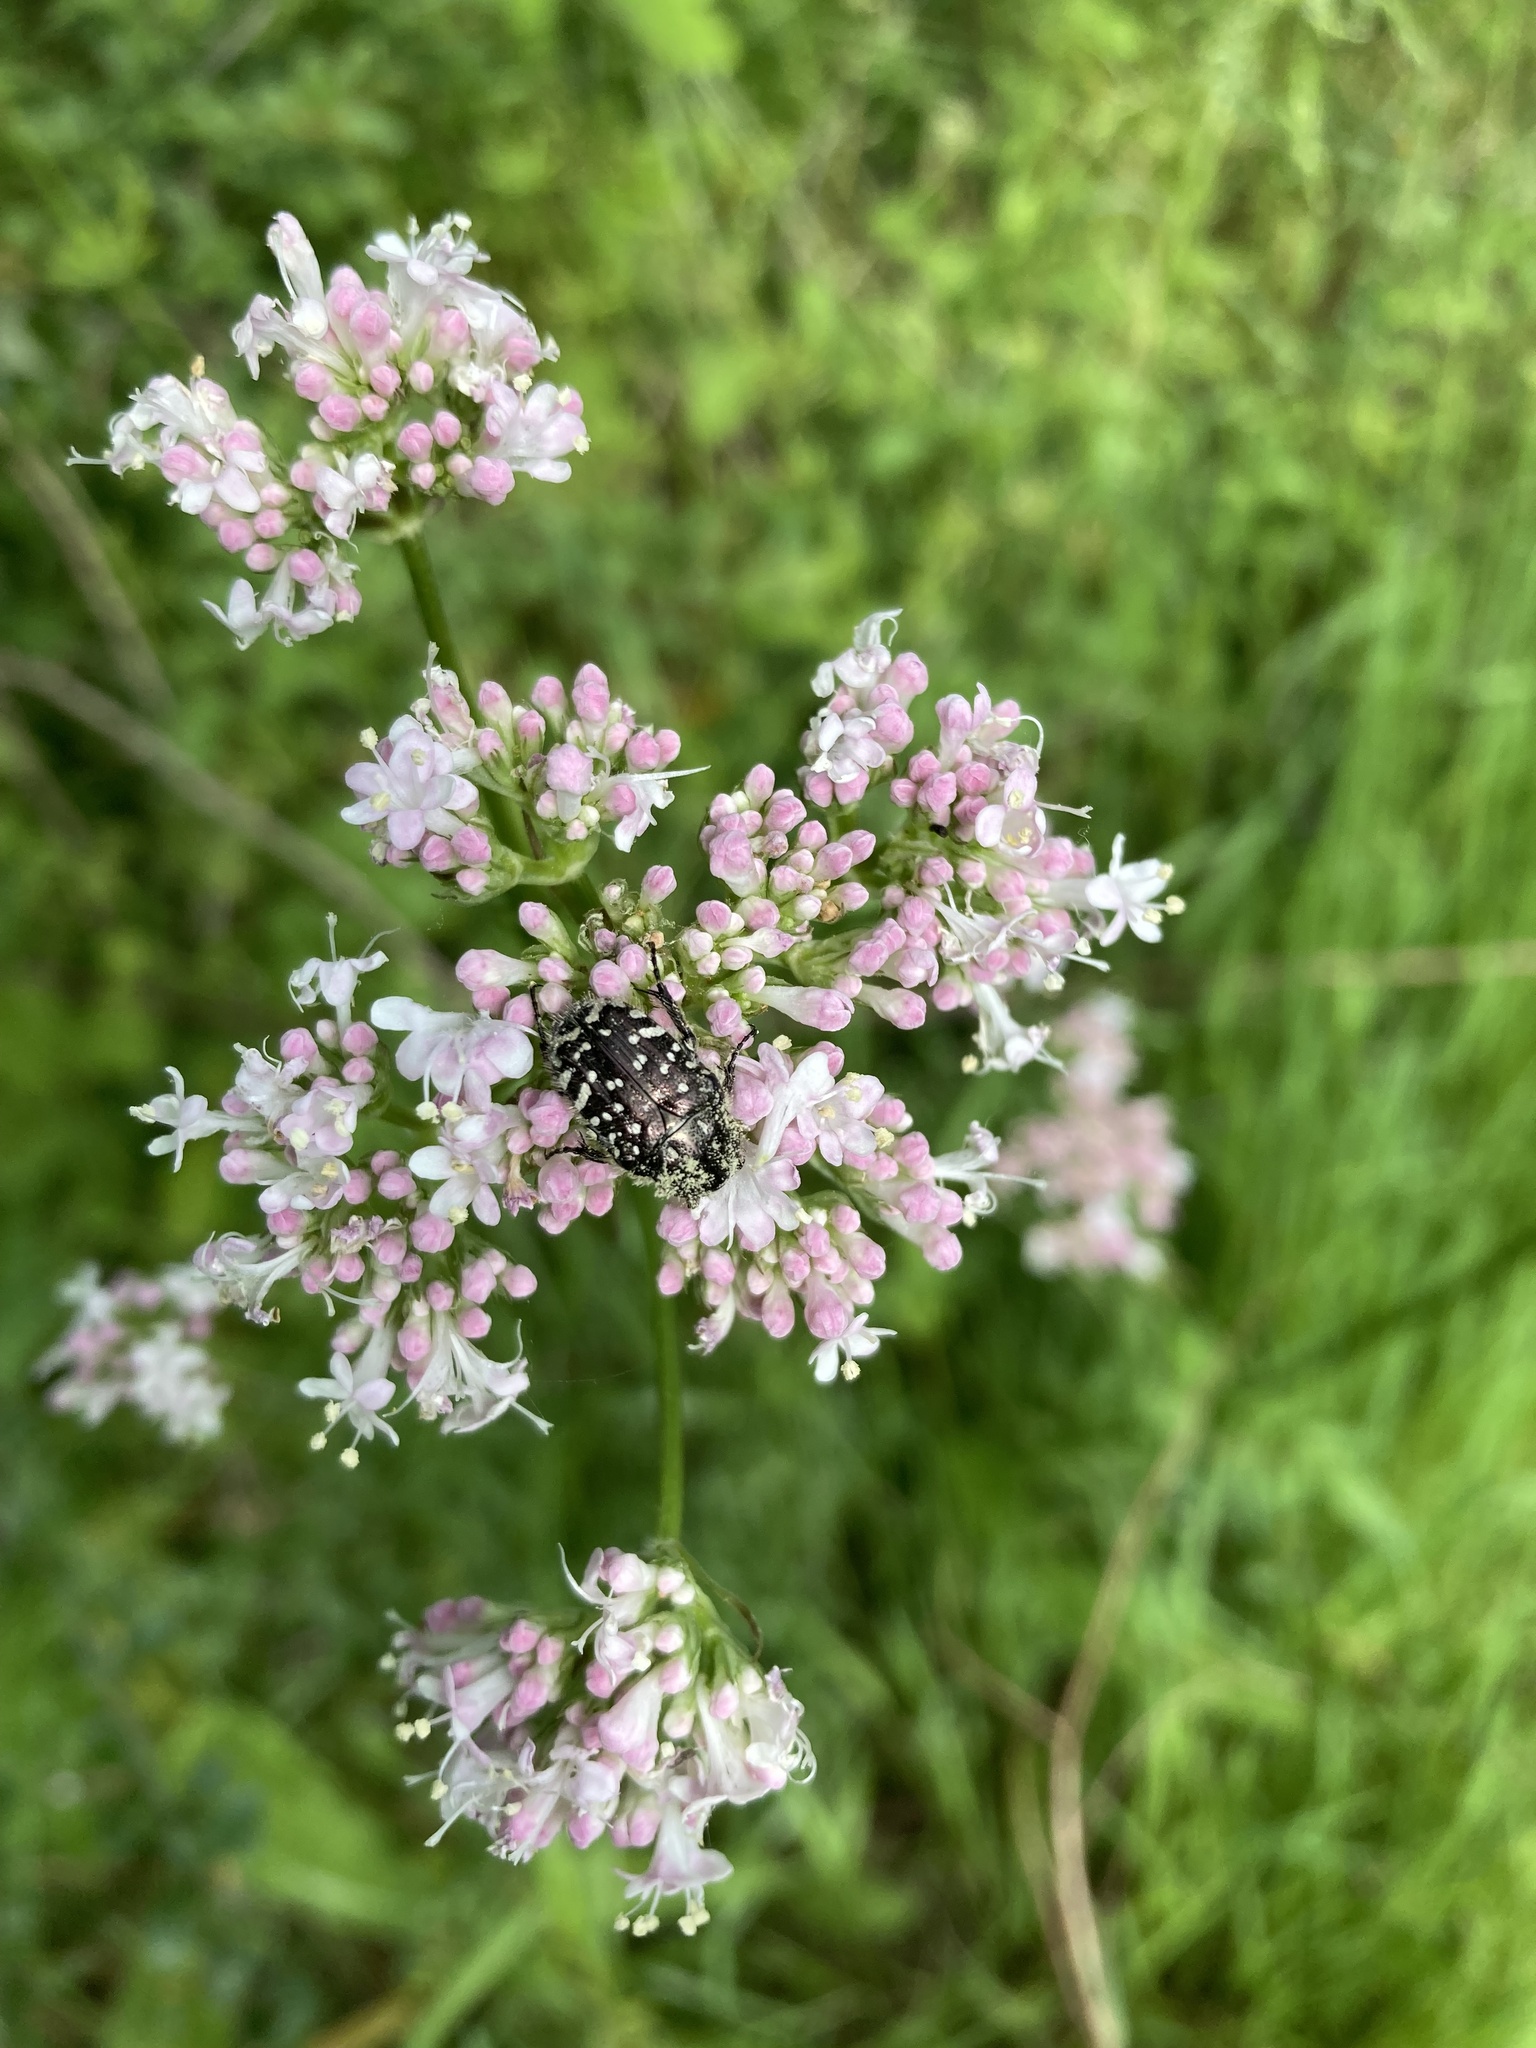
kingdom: Animalia
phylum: Arthropoda
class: Insecta
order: Coleoptera
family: Scarabaeidae
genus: Oxythyrea
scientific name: Oxythyrea funesta
